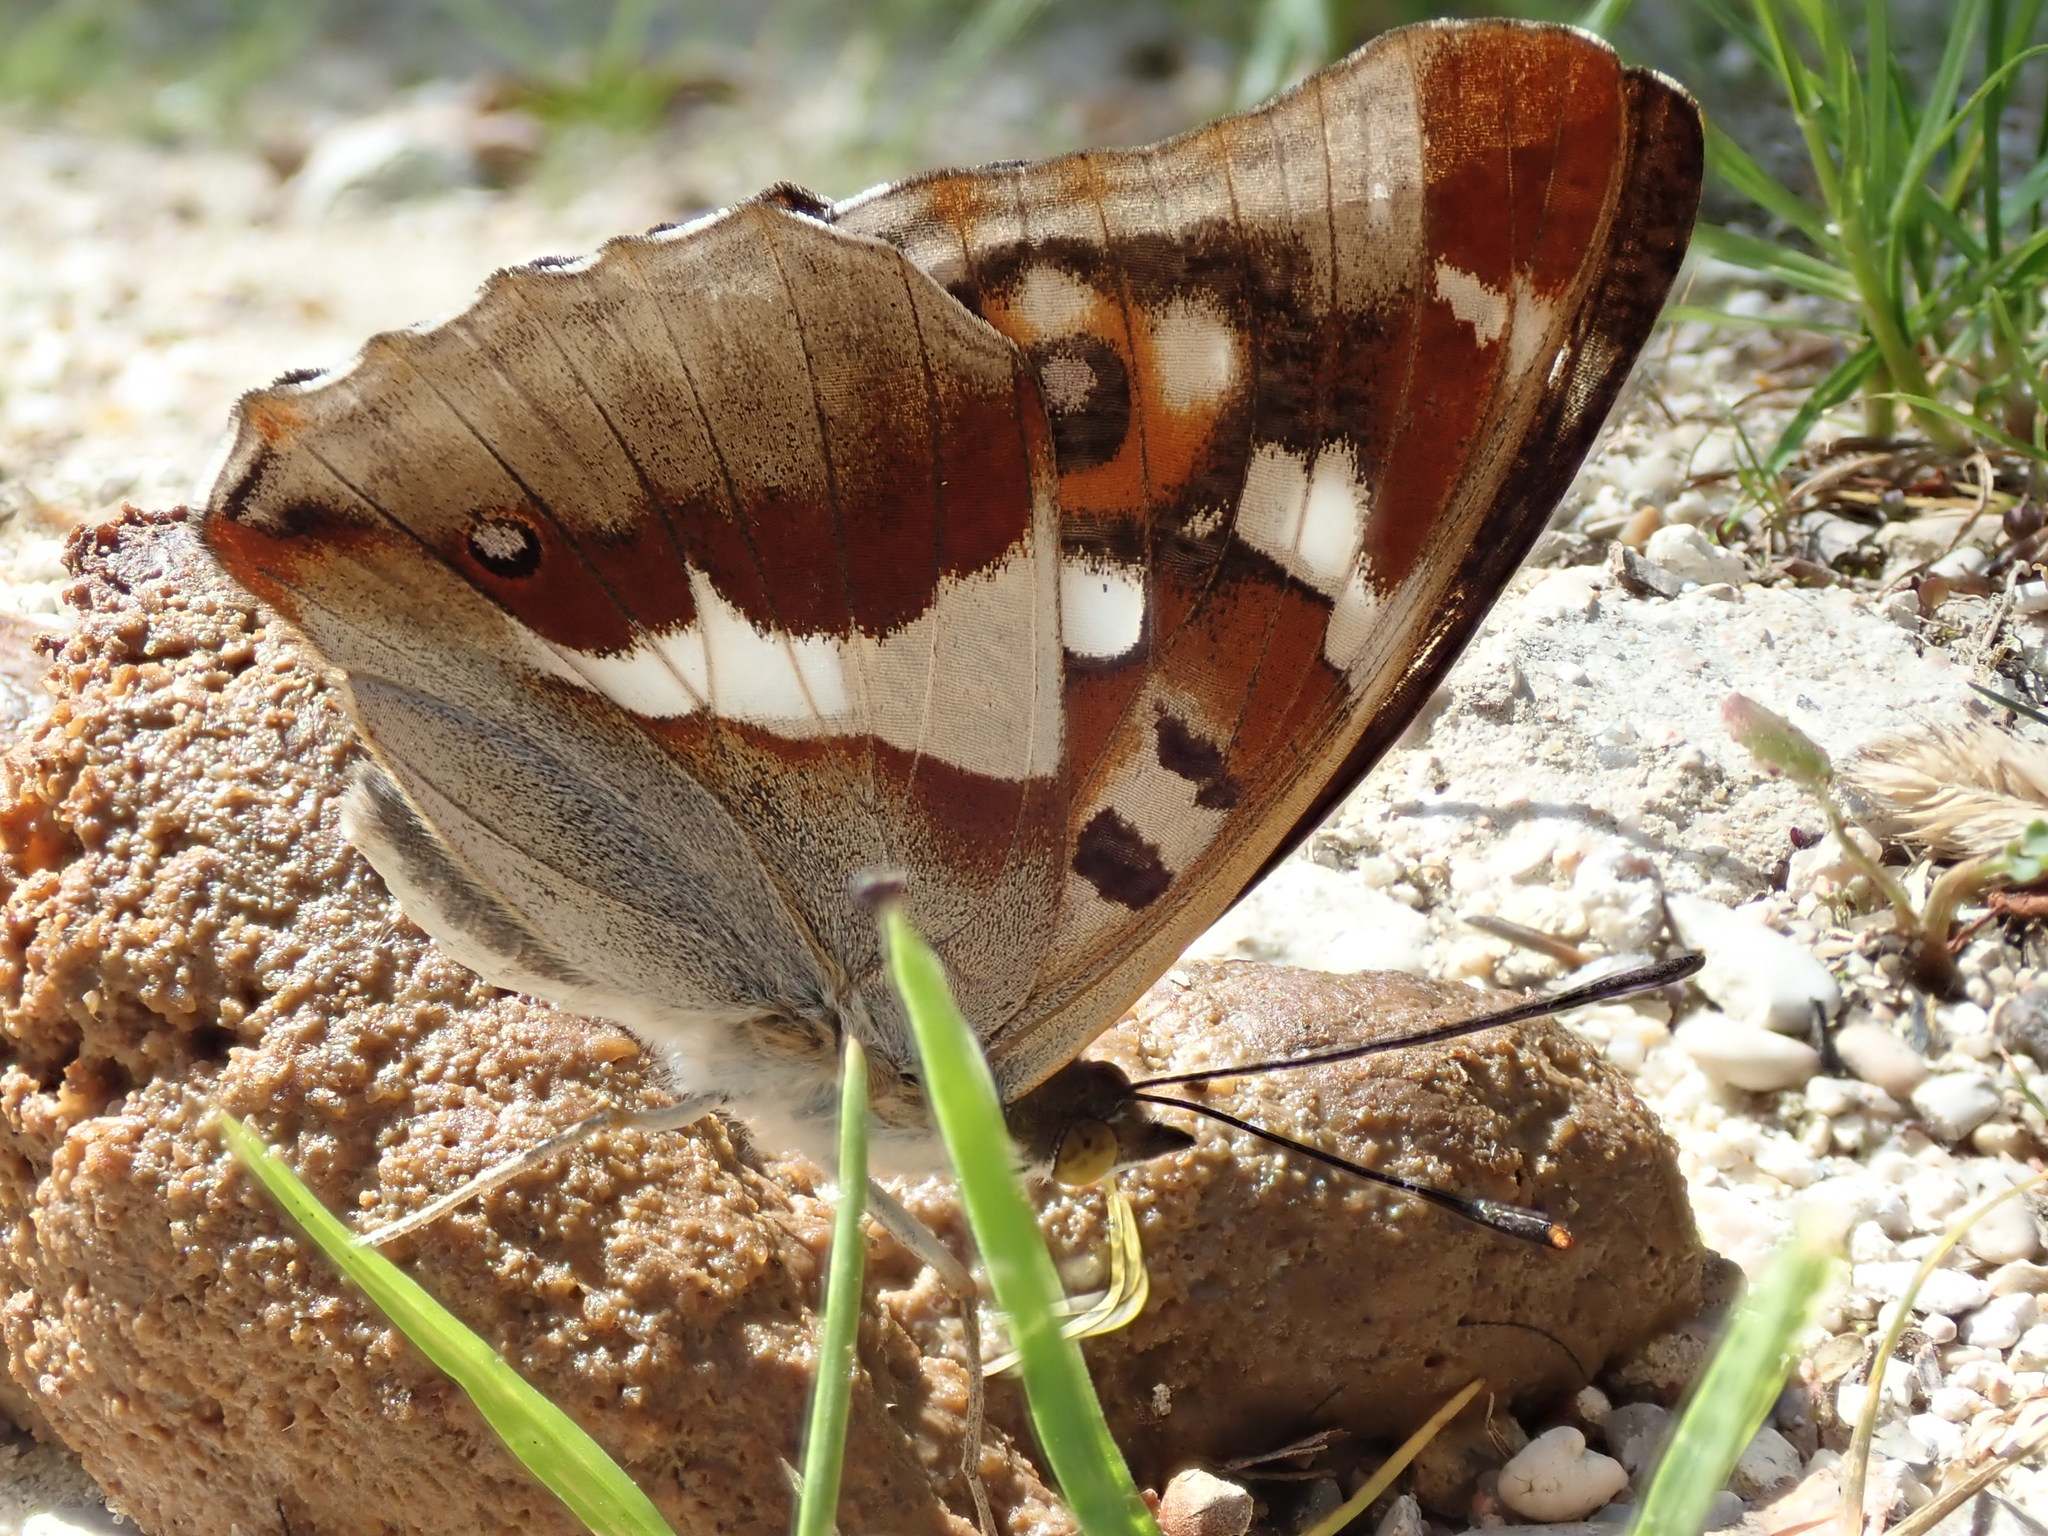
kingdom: Animalia
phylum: Arthropoda
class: Insecta
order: Lepidoptera
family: Nymphalidae
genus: Apatura
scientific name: Apatura iris
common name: Purple emperor
